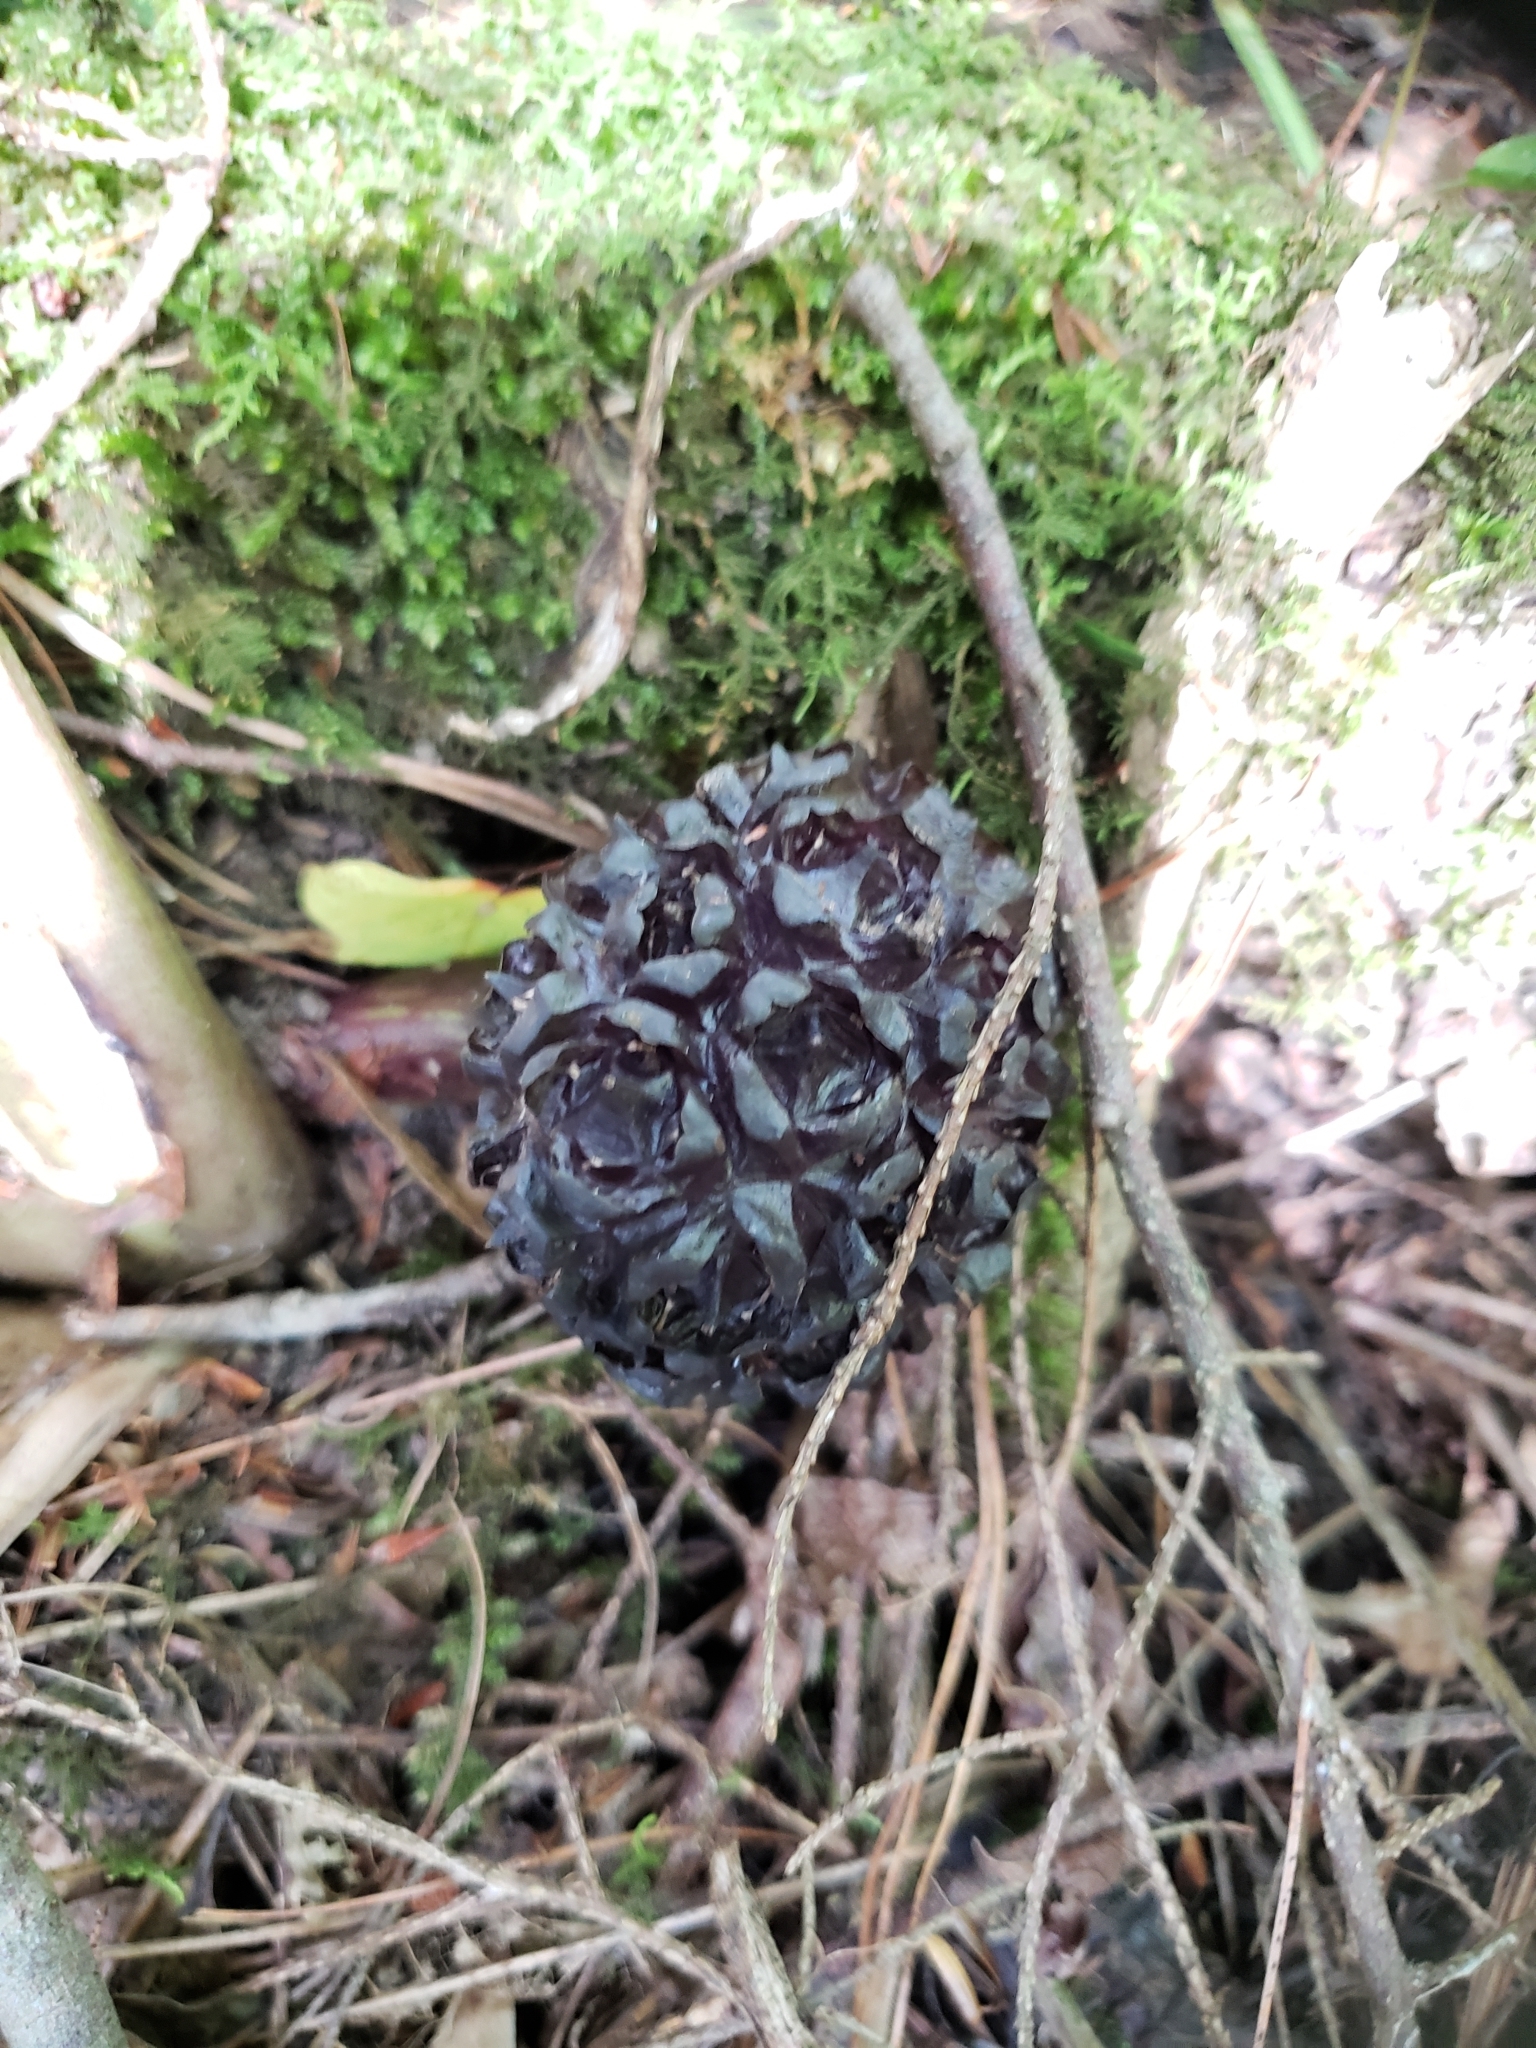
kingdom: Plantae
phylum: Tracheophyta
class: Liliopsida
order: Alismatales
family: Araceae
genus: Symplocarpus
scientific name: Symplocarpus foetidus
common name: Eastern skunk cabbage
